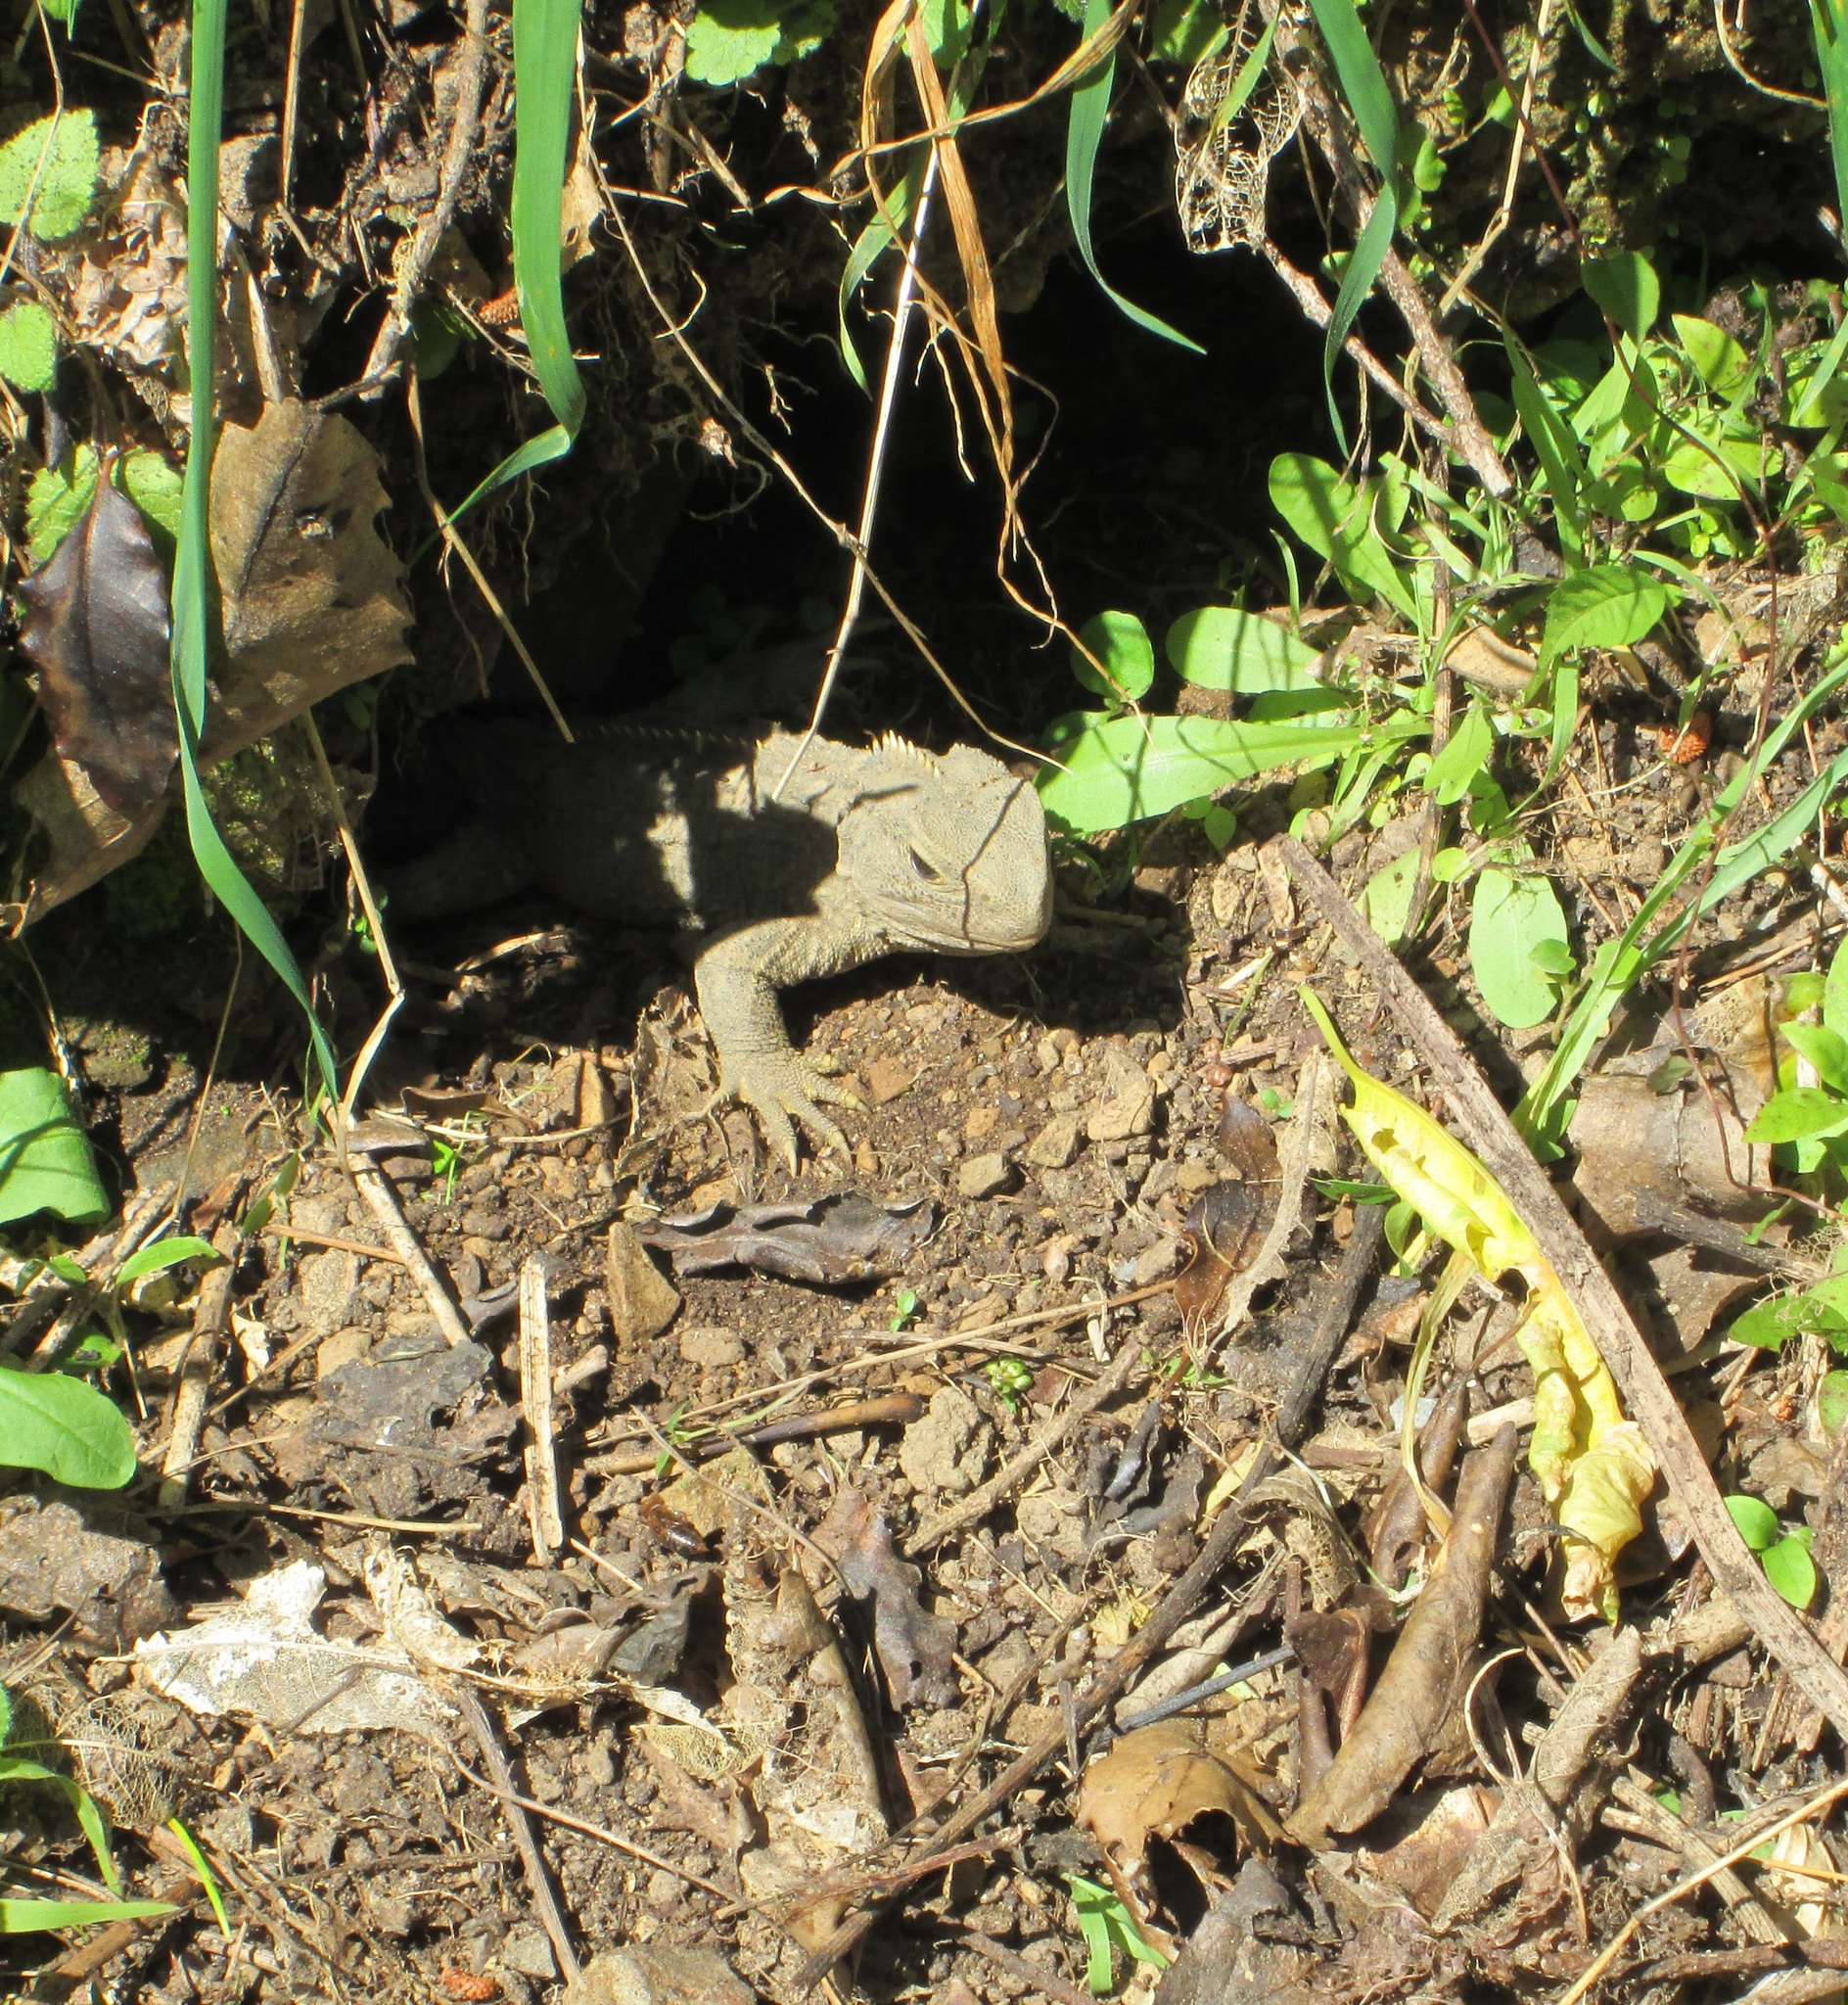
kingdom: Animalia
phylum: Chordata
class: Sphenodontia
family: Sphenodontidae
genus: Sphenodon
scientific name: Sphenodon punctatus
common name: Tuatara
